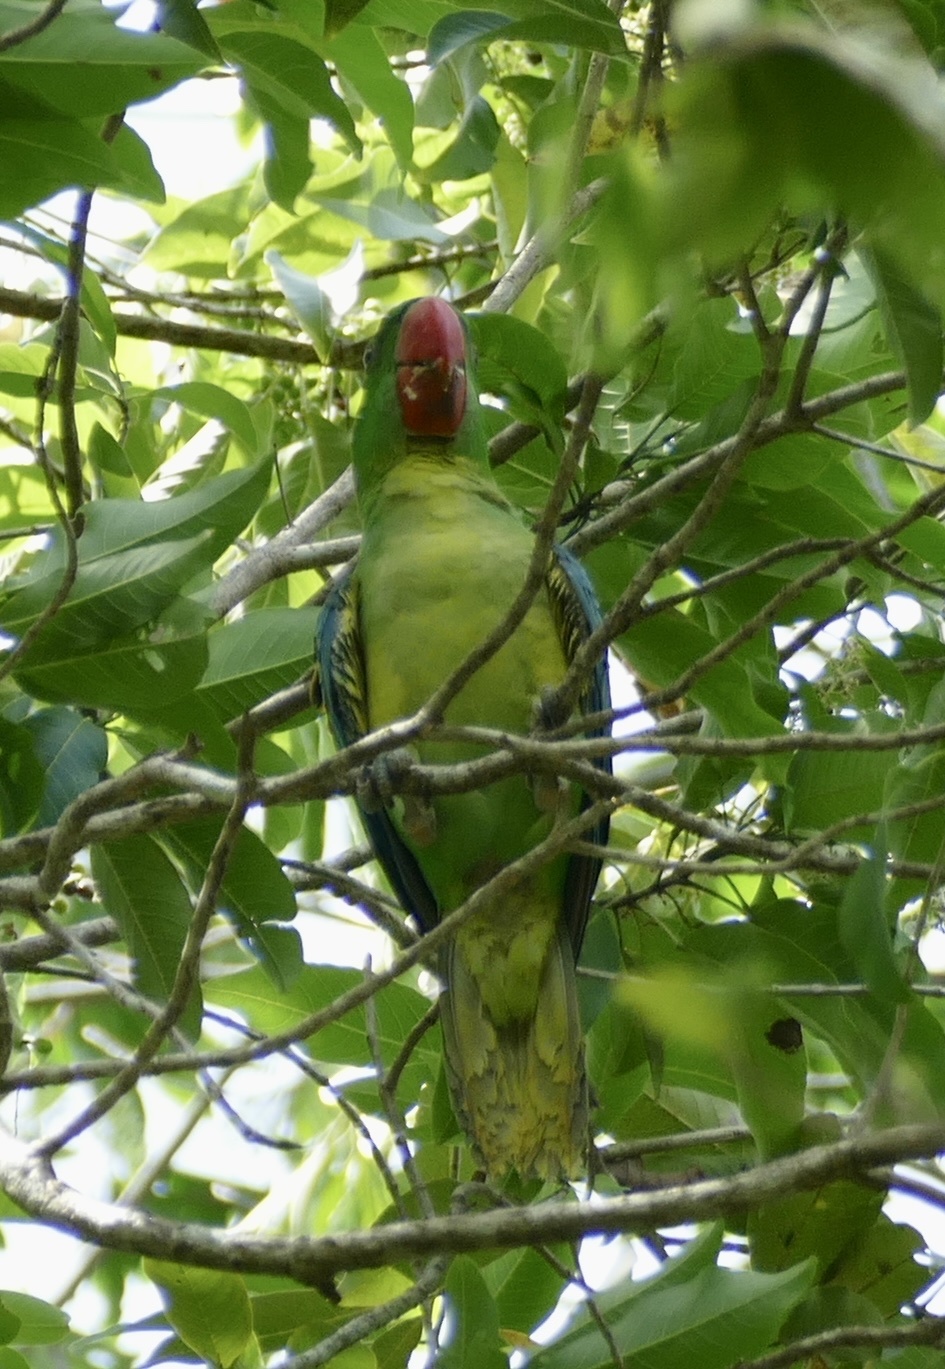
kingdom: Animalia
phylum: Chordata
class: Aves
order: Psittaciformes
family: Psittacidae
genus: Tanygnathus
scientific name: Tanygnathus megalorynchos
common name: Great-billed parrot
